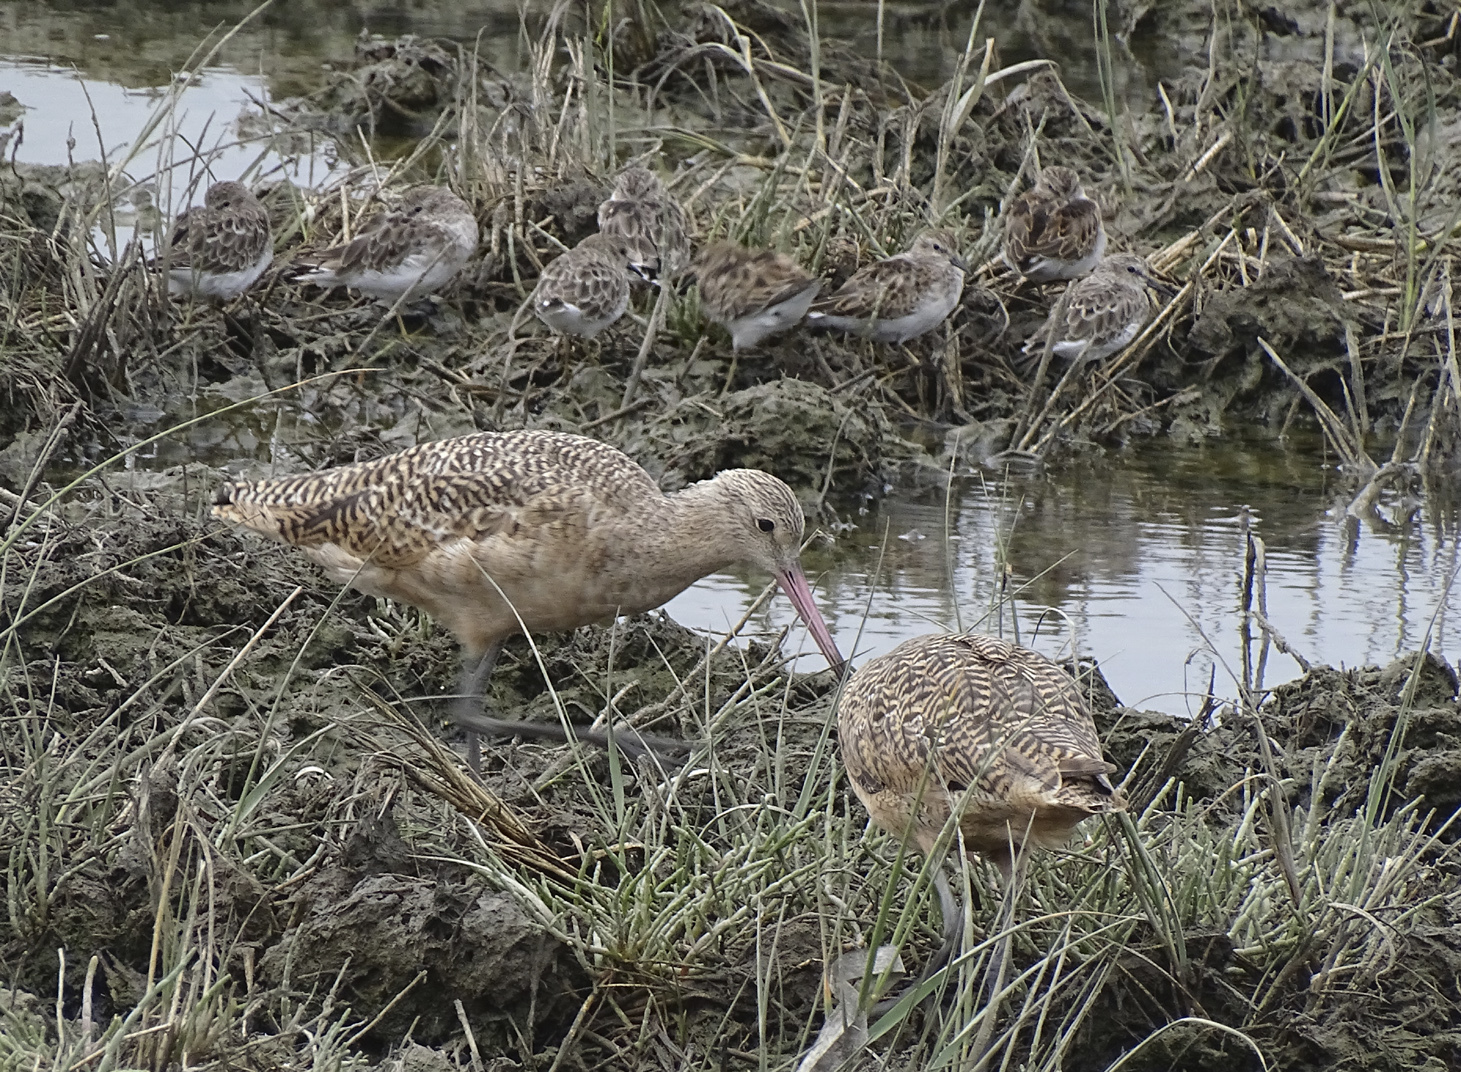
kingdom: Animalia
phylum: Chordata
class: Aves
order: Charadriiformes
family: Scolopacidae
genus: Limosa
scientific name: Limosa fedoa
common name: Marbled godwit
